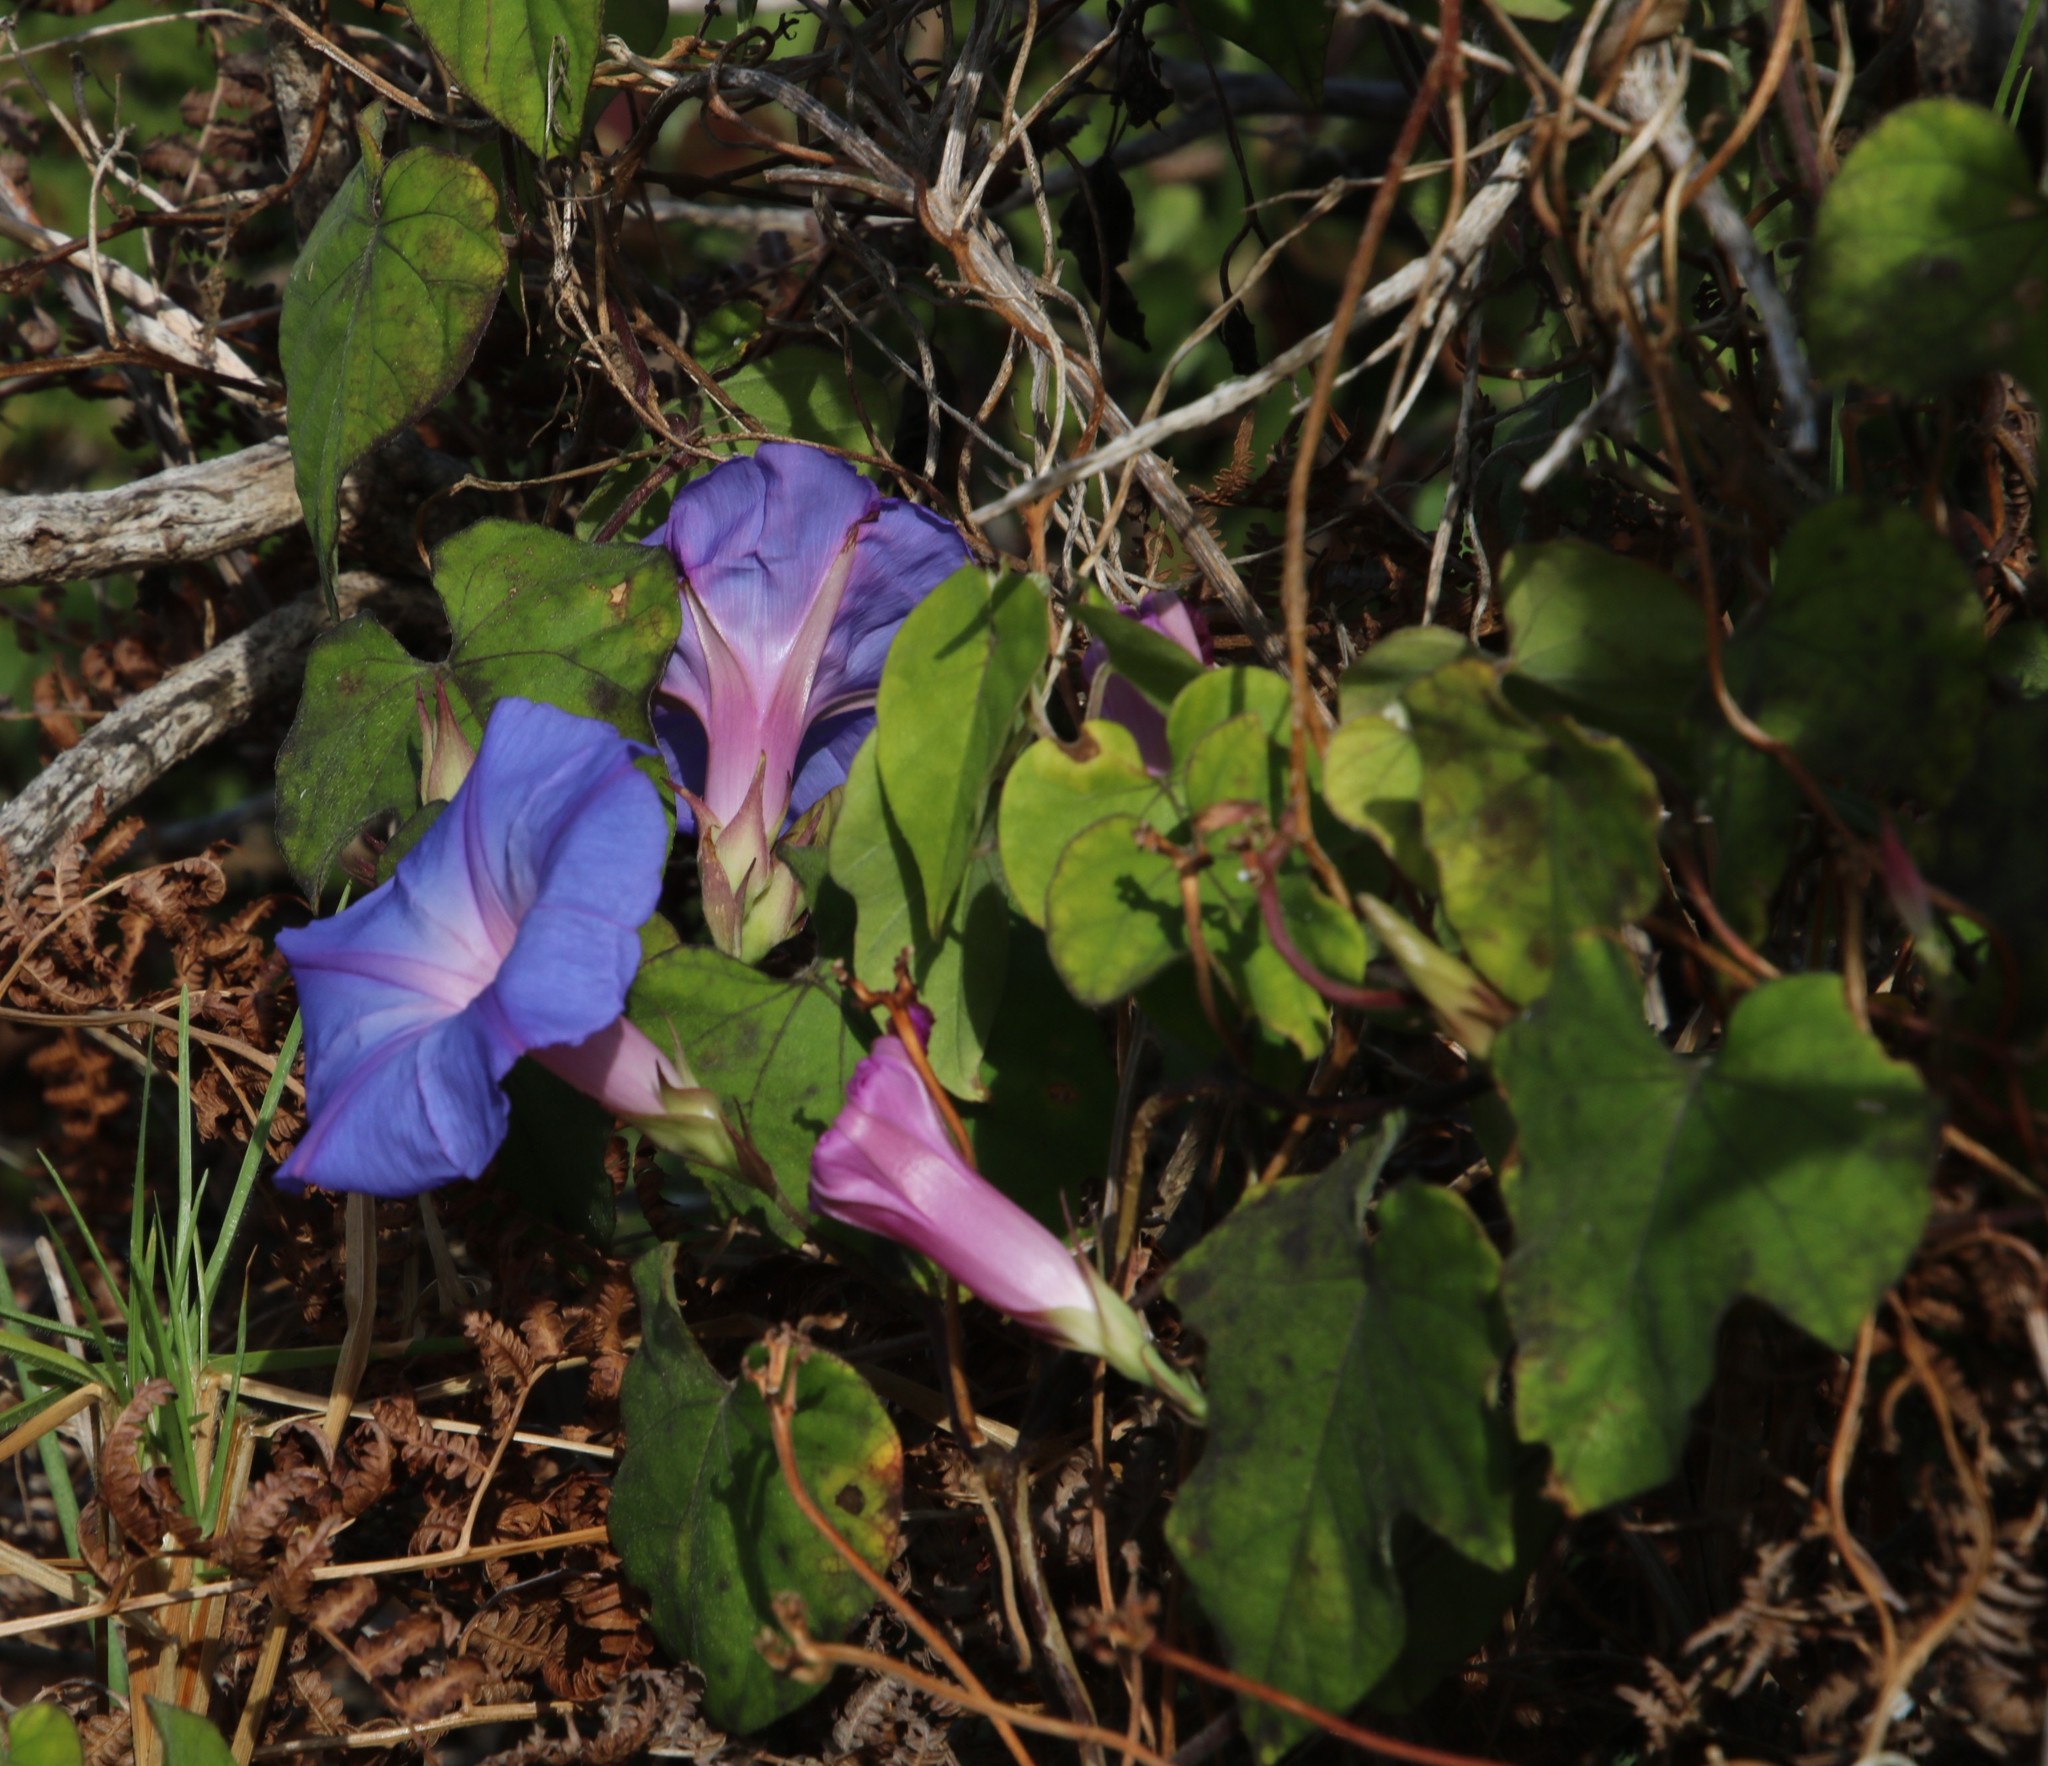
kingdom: Plantae
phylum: Tracheophyta
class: Magnoliopsida
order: Solanales
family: Convolvulaceae
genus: Ipomoea
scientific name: Ipomoea indica
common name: Blue dawnflower
